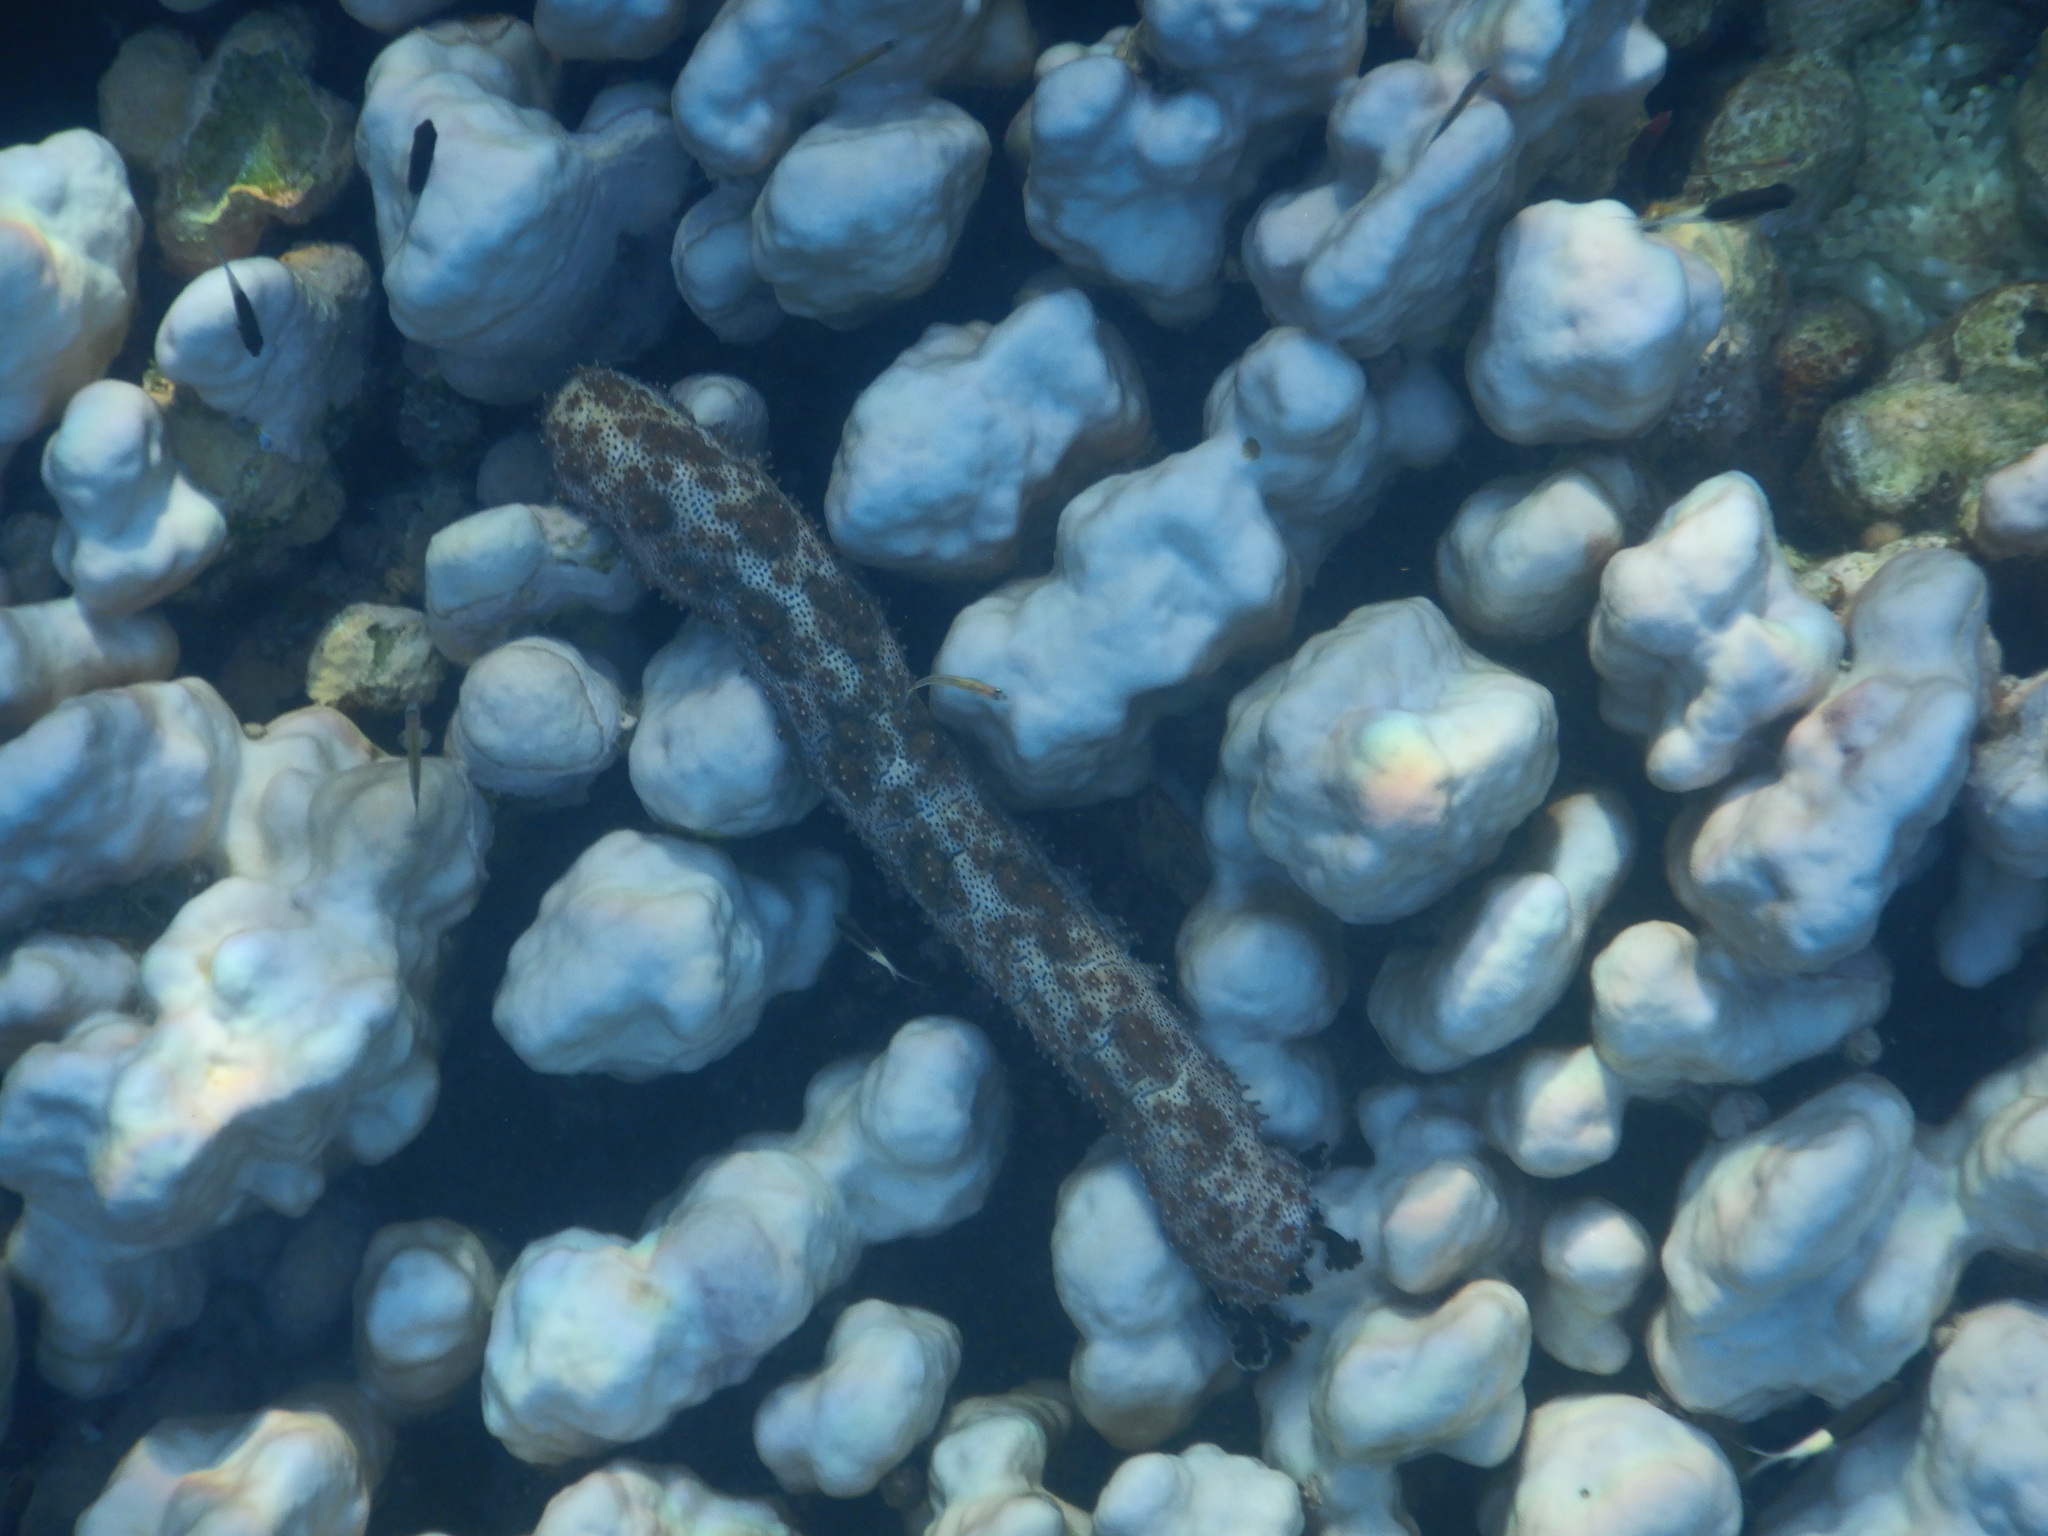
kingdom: Animalia
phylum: Echinodermata
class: Holothuroidea
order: Holothuriida
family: Holothuriidae
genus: Pearsonothuria
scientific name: Pearsonothuria graeffei
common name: Blackspotted sea cucumber
